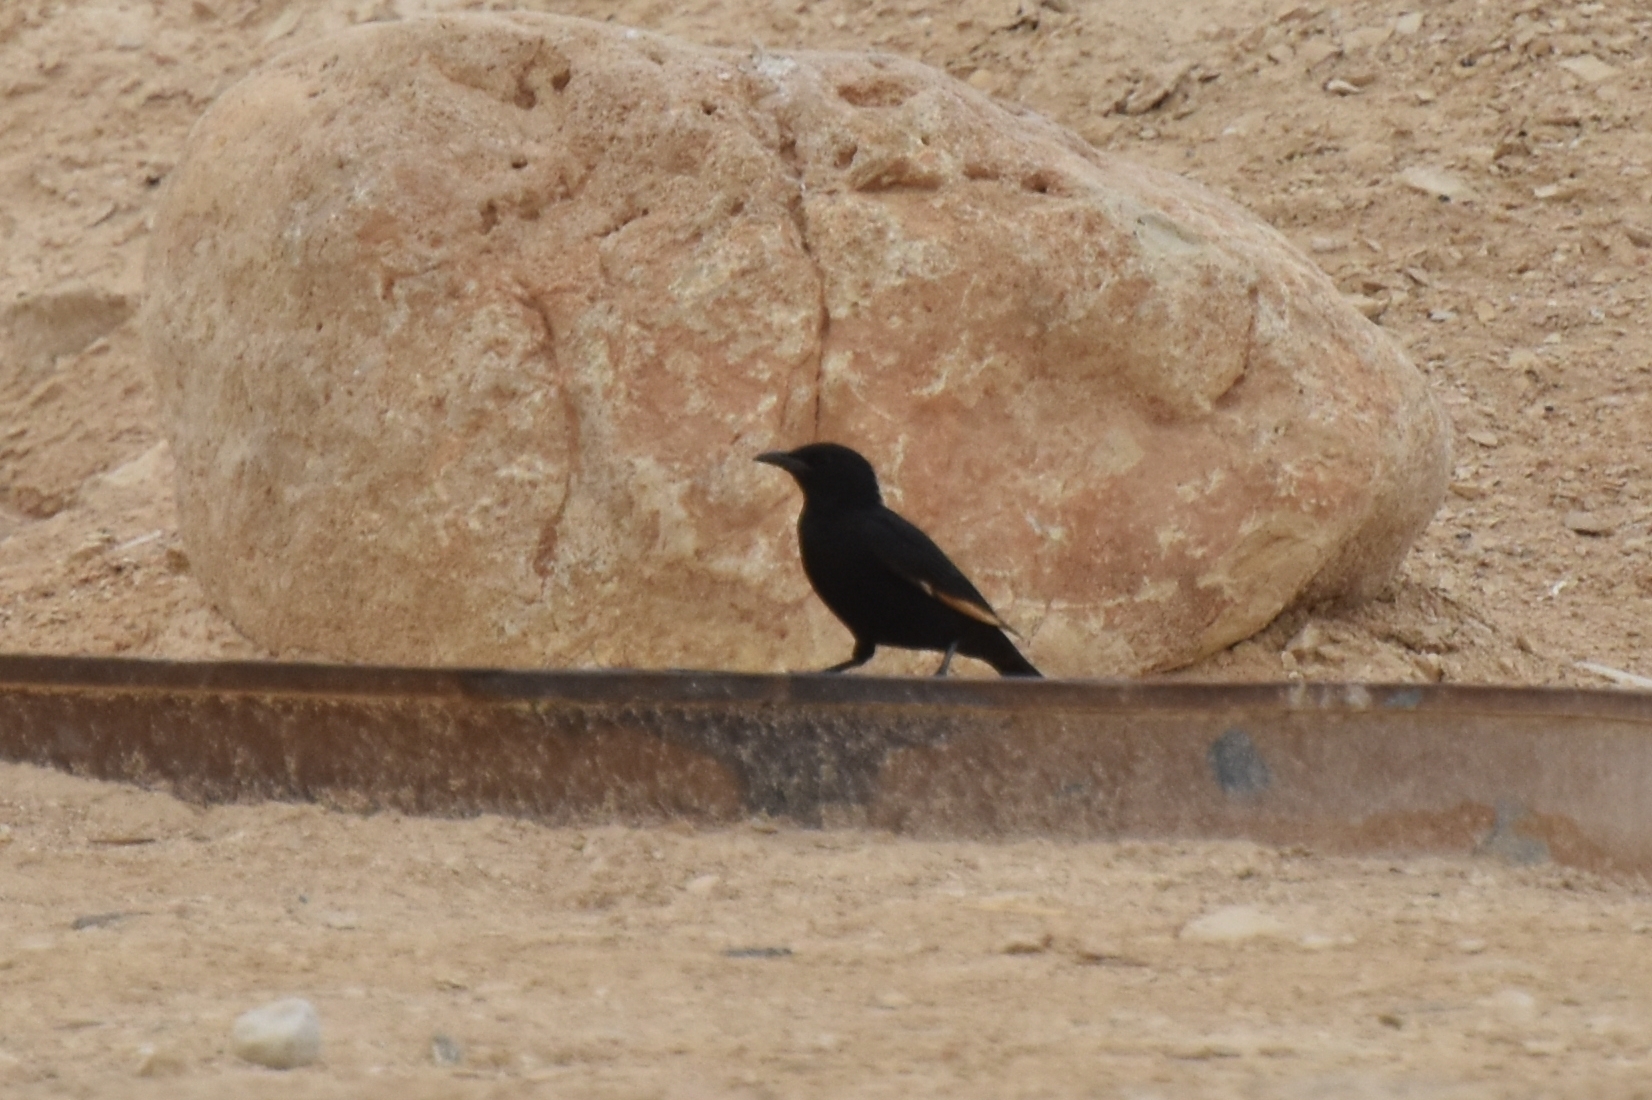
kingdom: Animalia
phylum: Chordata
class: Aves
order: Passeriformes
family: Sturnidae
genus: Onychognathus
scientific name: Onychognathus tristramii
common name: Tristram's starling
